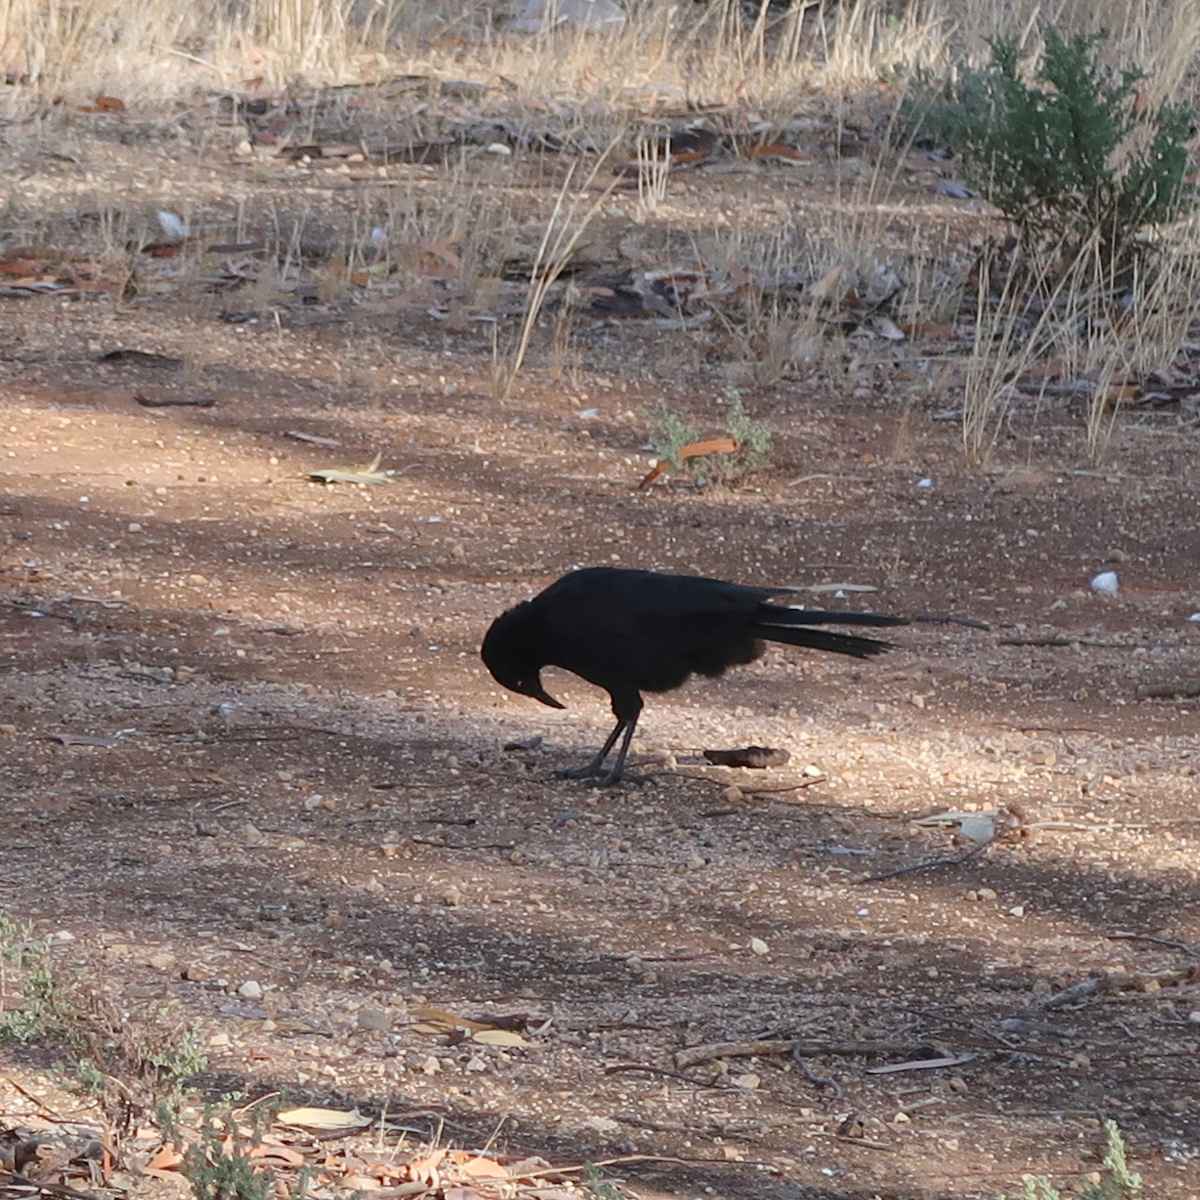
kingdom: Animalia
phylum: Chordata
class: Aves
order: Passeriformes
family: Corcoracidae
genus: Corcorax
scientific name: Corcorax melanoramphos
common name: White-winged chough
